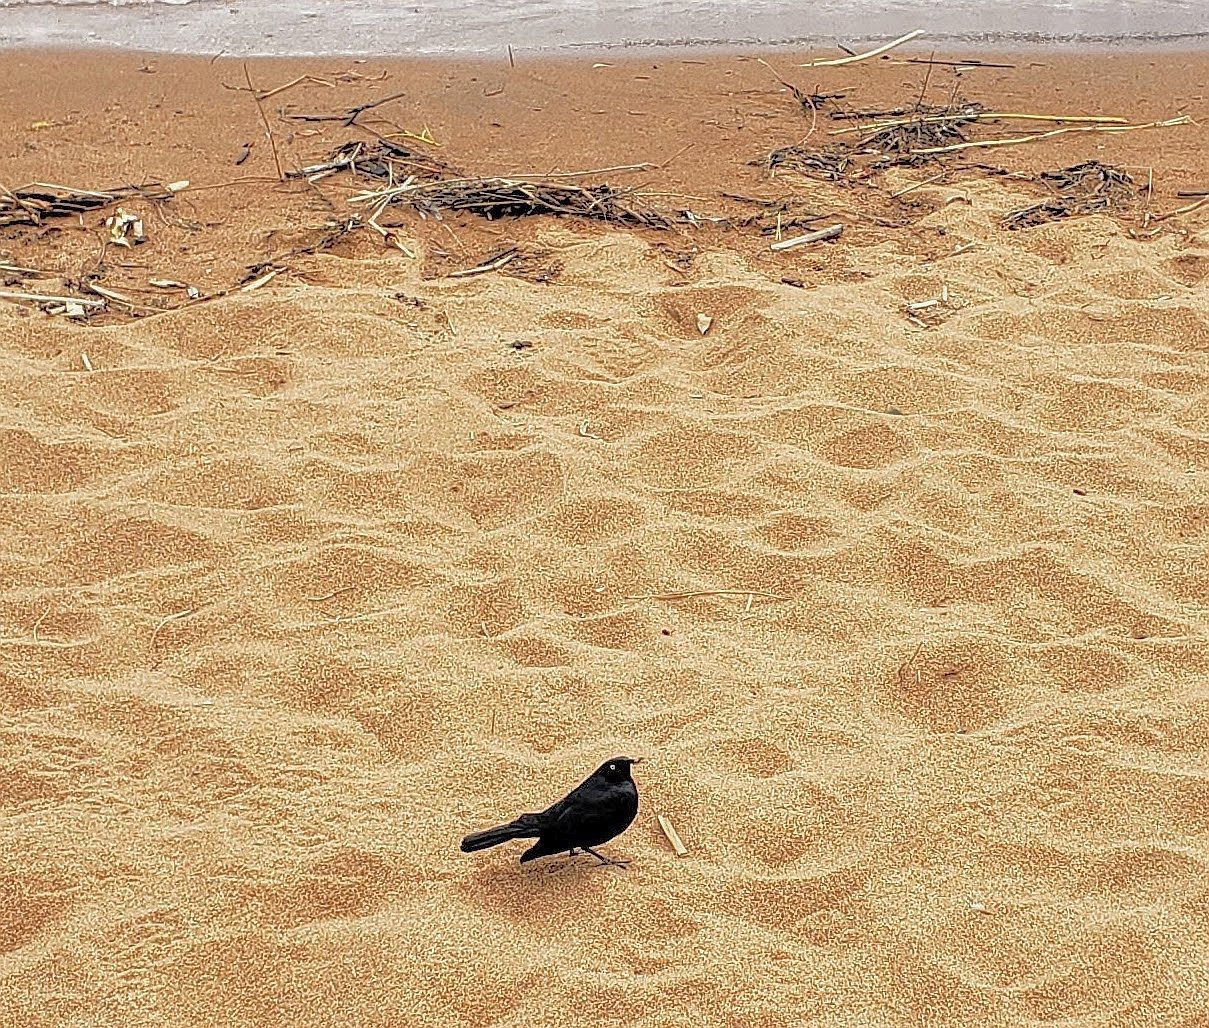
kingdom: Animalia
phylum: Chordata
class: Aves
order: Passeriformes
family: Icteridae
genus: Euphagus
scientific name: Euphagus cyanocephalus
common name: Brewer's blackbird
